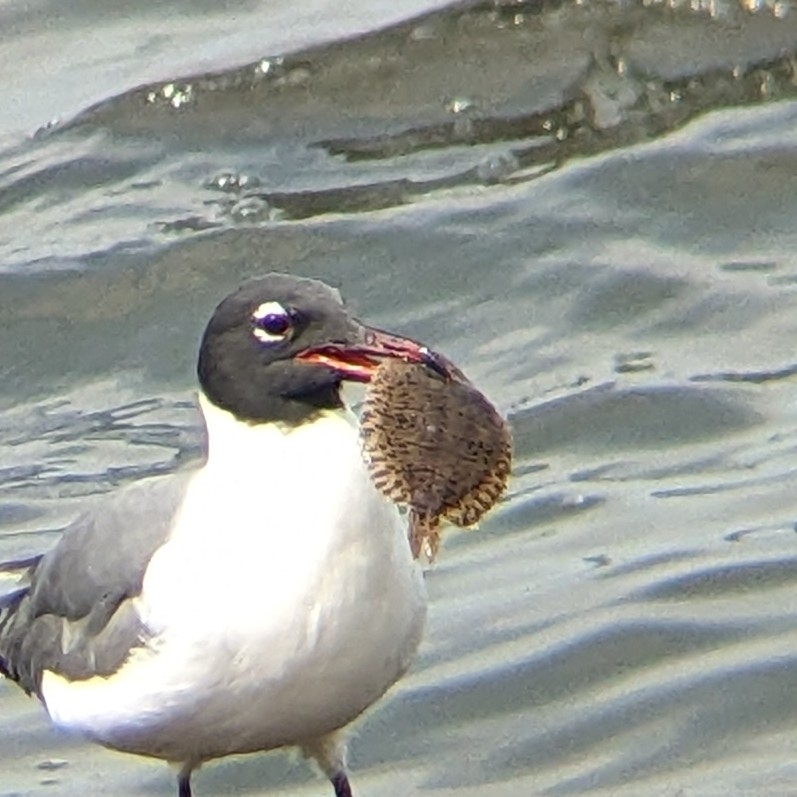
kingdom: Animalia
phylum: Chordata
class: Aves
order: Charadriiformes
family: Laridae
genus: Leucophaeus
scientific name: Leucophaeus atricilla
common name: Laughing gull
